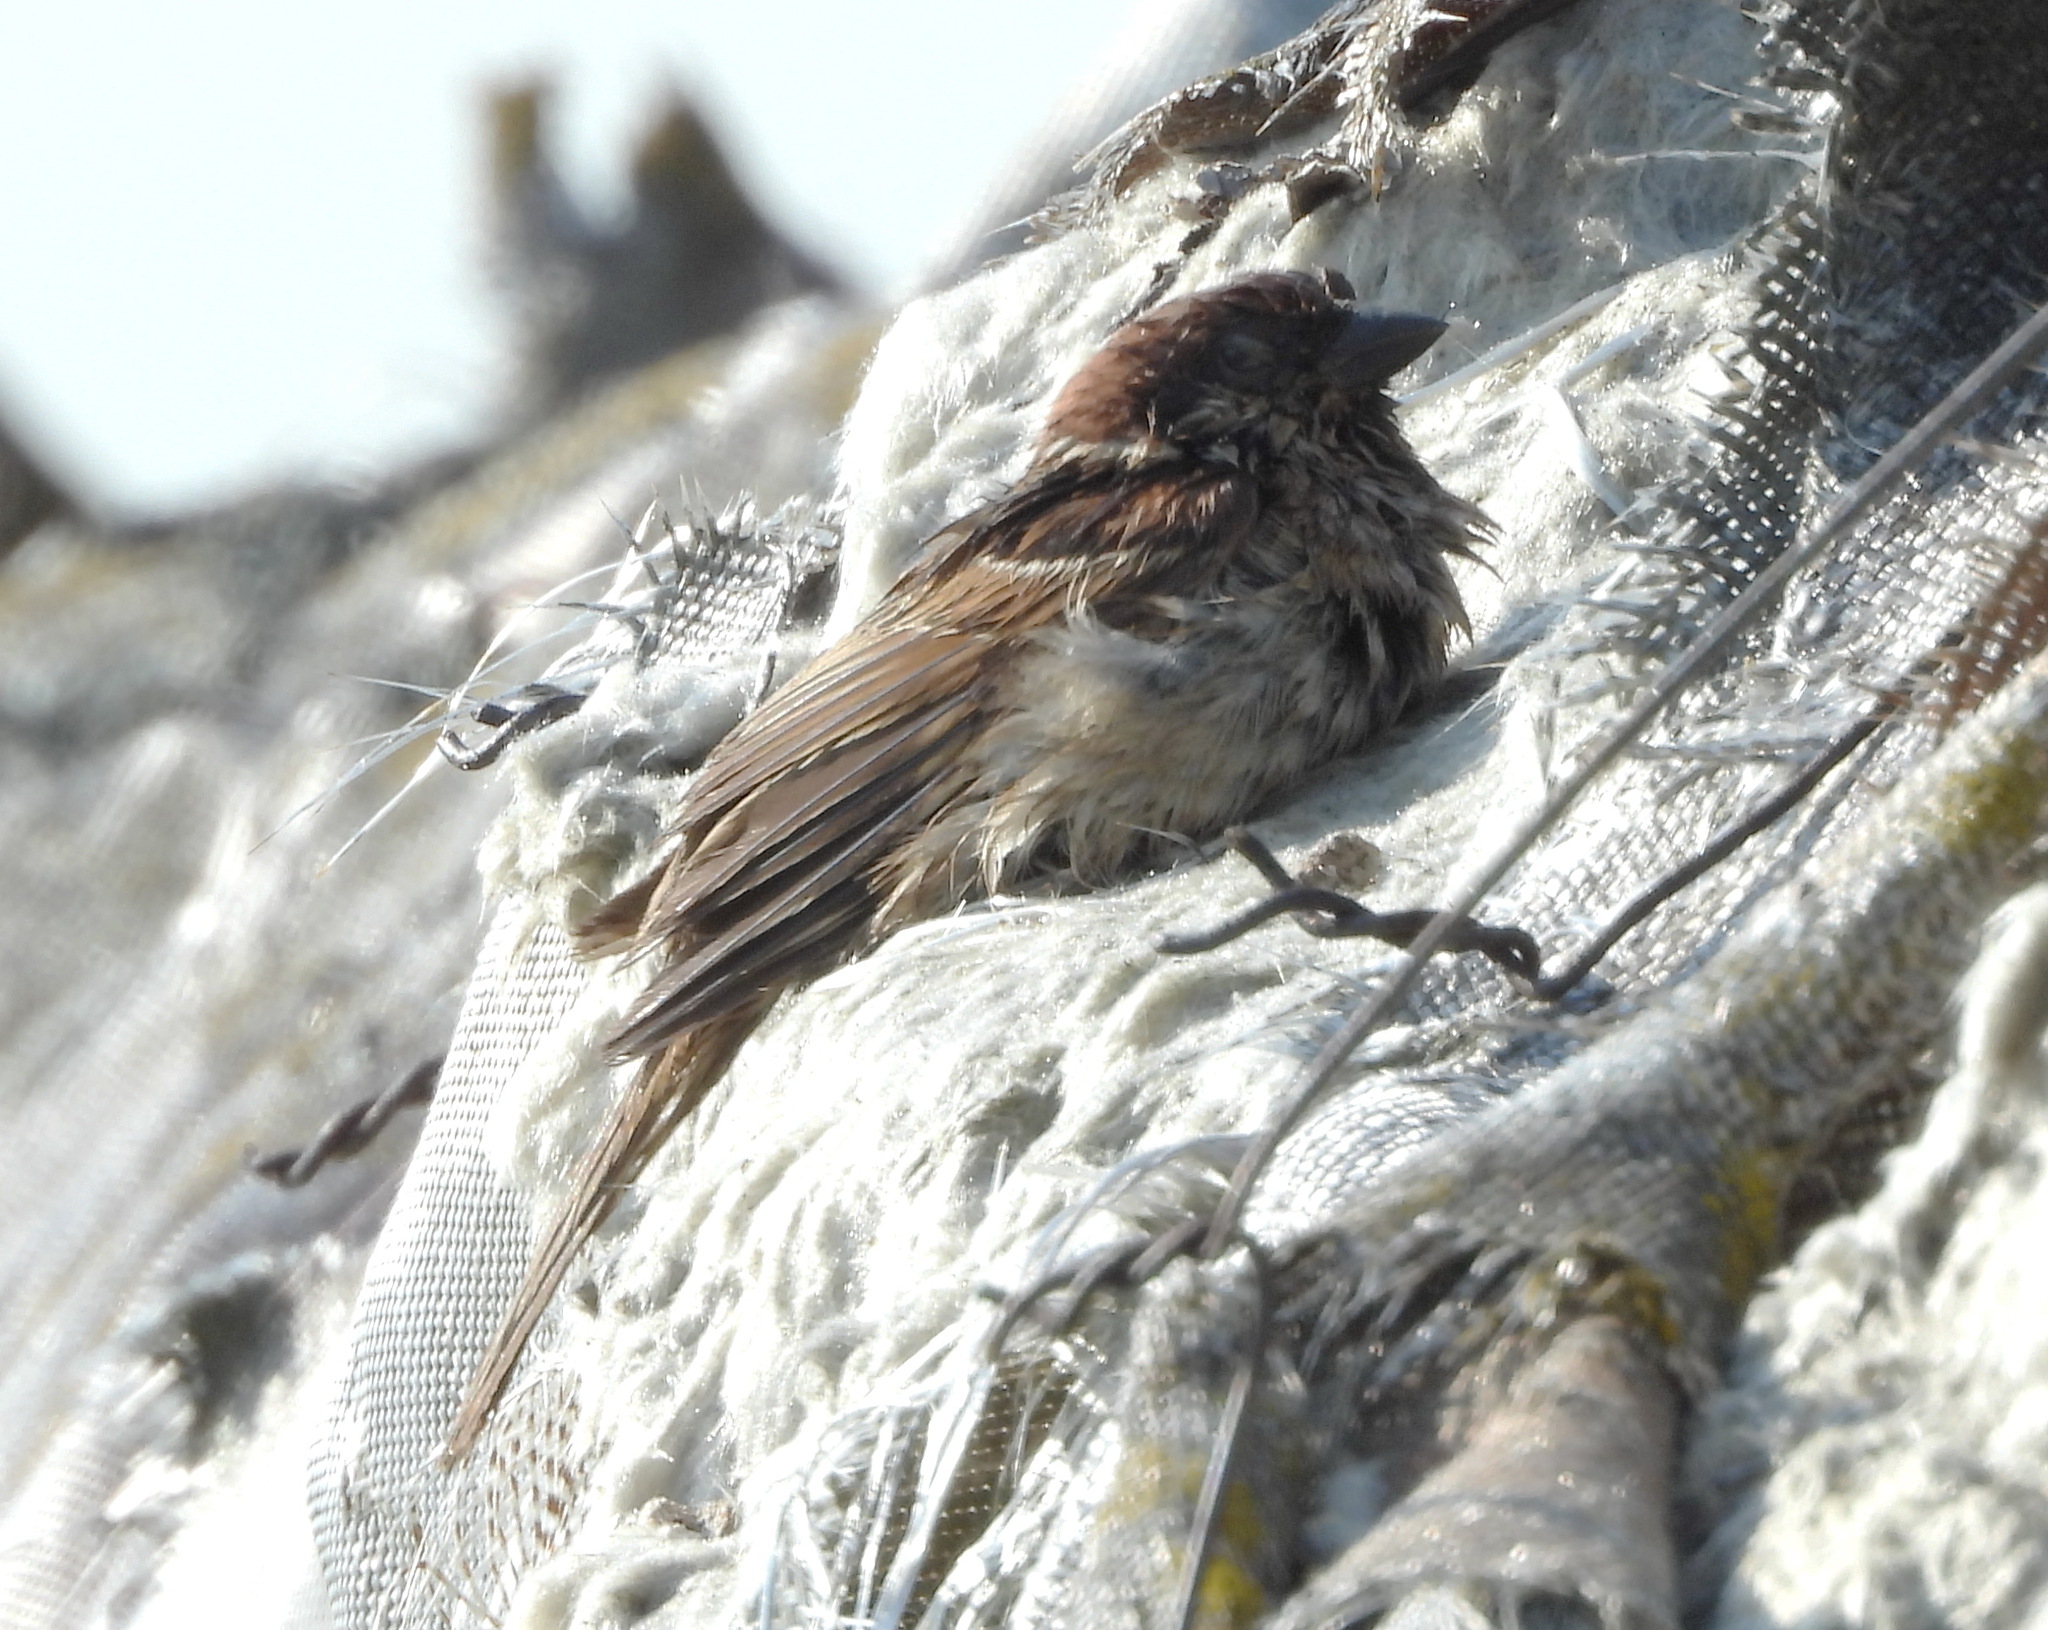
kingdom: Animalia
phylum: Chordata
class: Aves
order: Passeriformes
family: Passeridae
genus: Passer
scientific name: Passer montanus
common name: Eurasian tree sparrow
